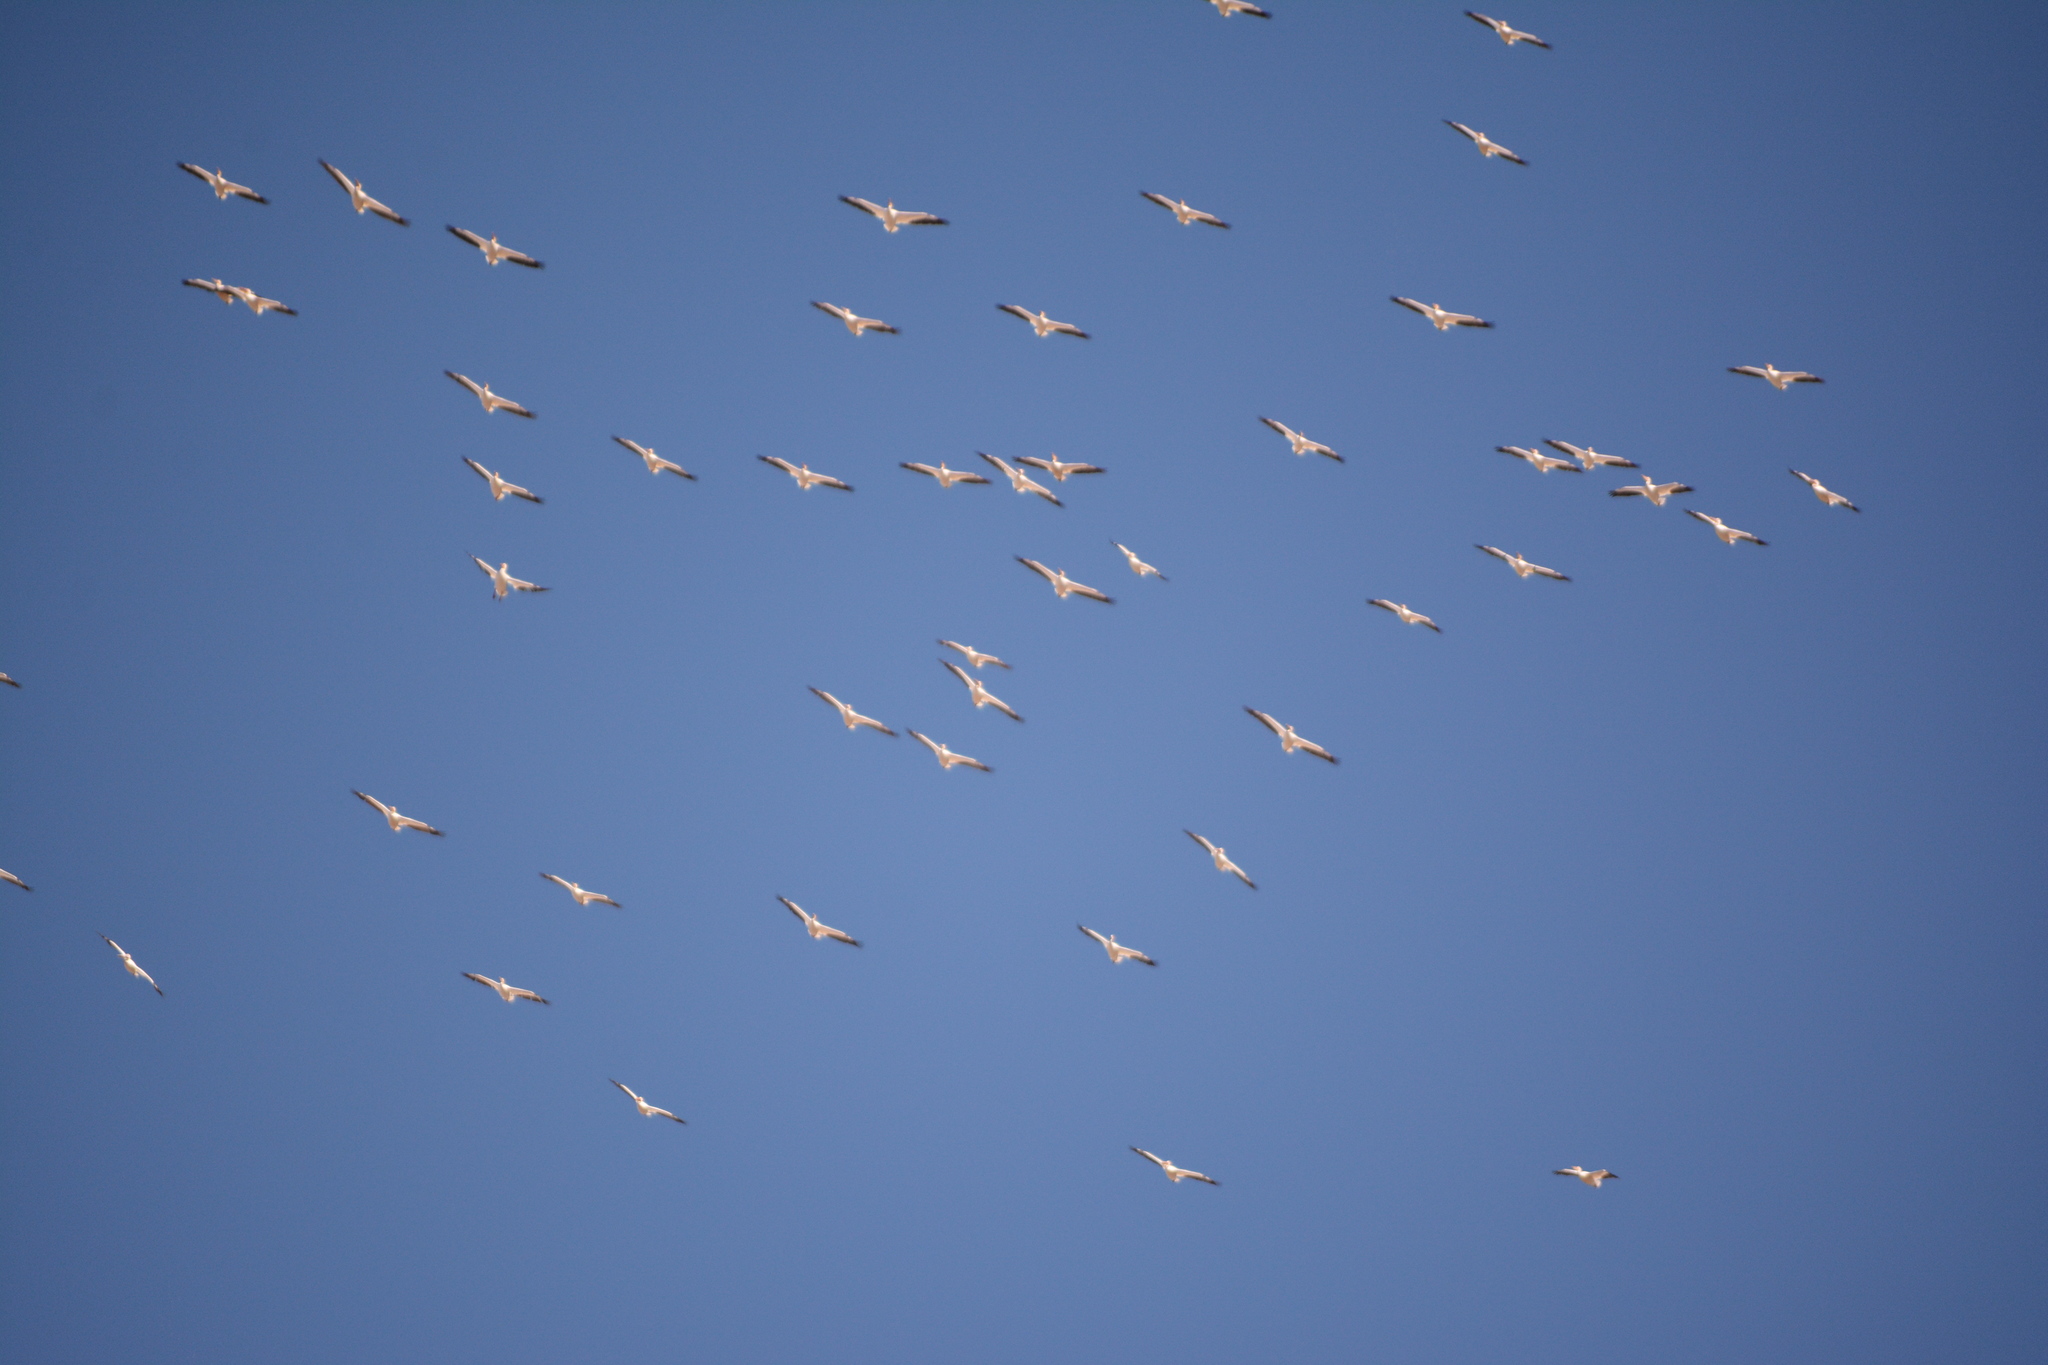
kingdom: Animalia
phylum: Chordata
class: Aves
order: Pelecaniformes
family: Pelecanidae
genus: Pelecanus
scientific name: Pelecanus erythrorhynchos
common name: American white pelican
